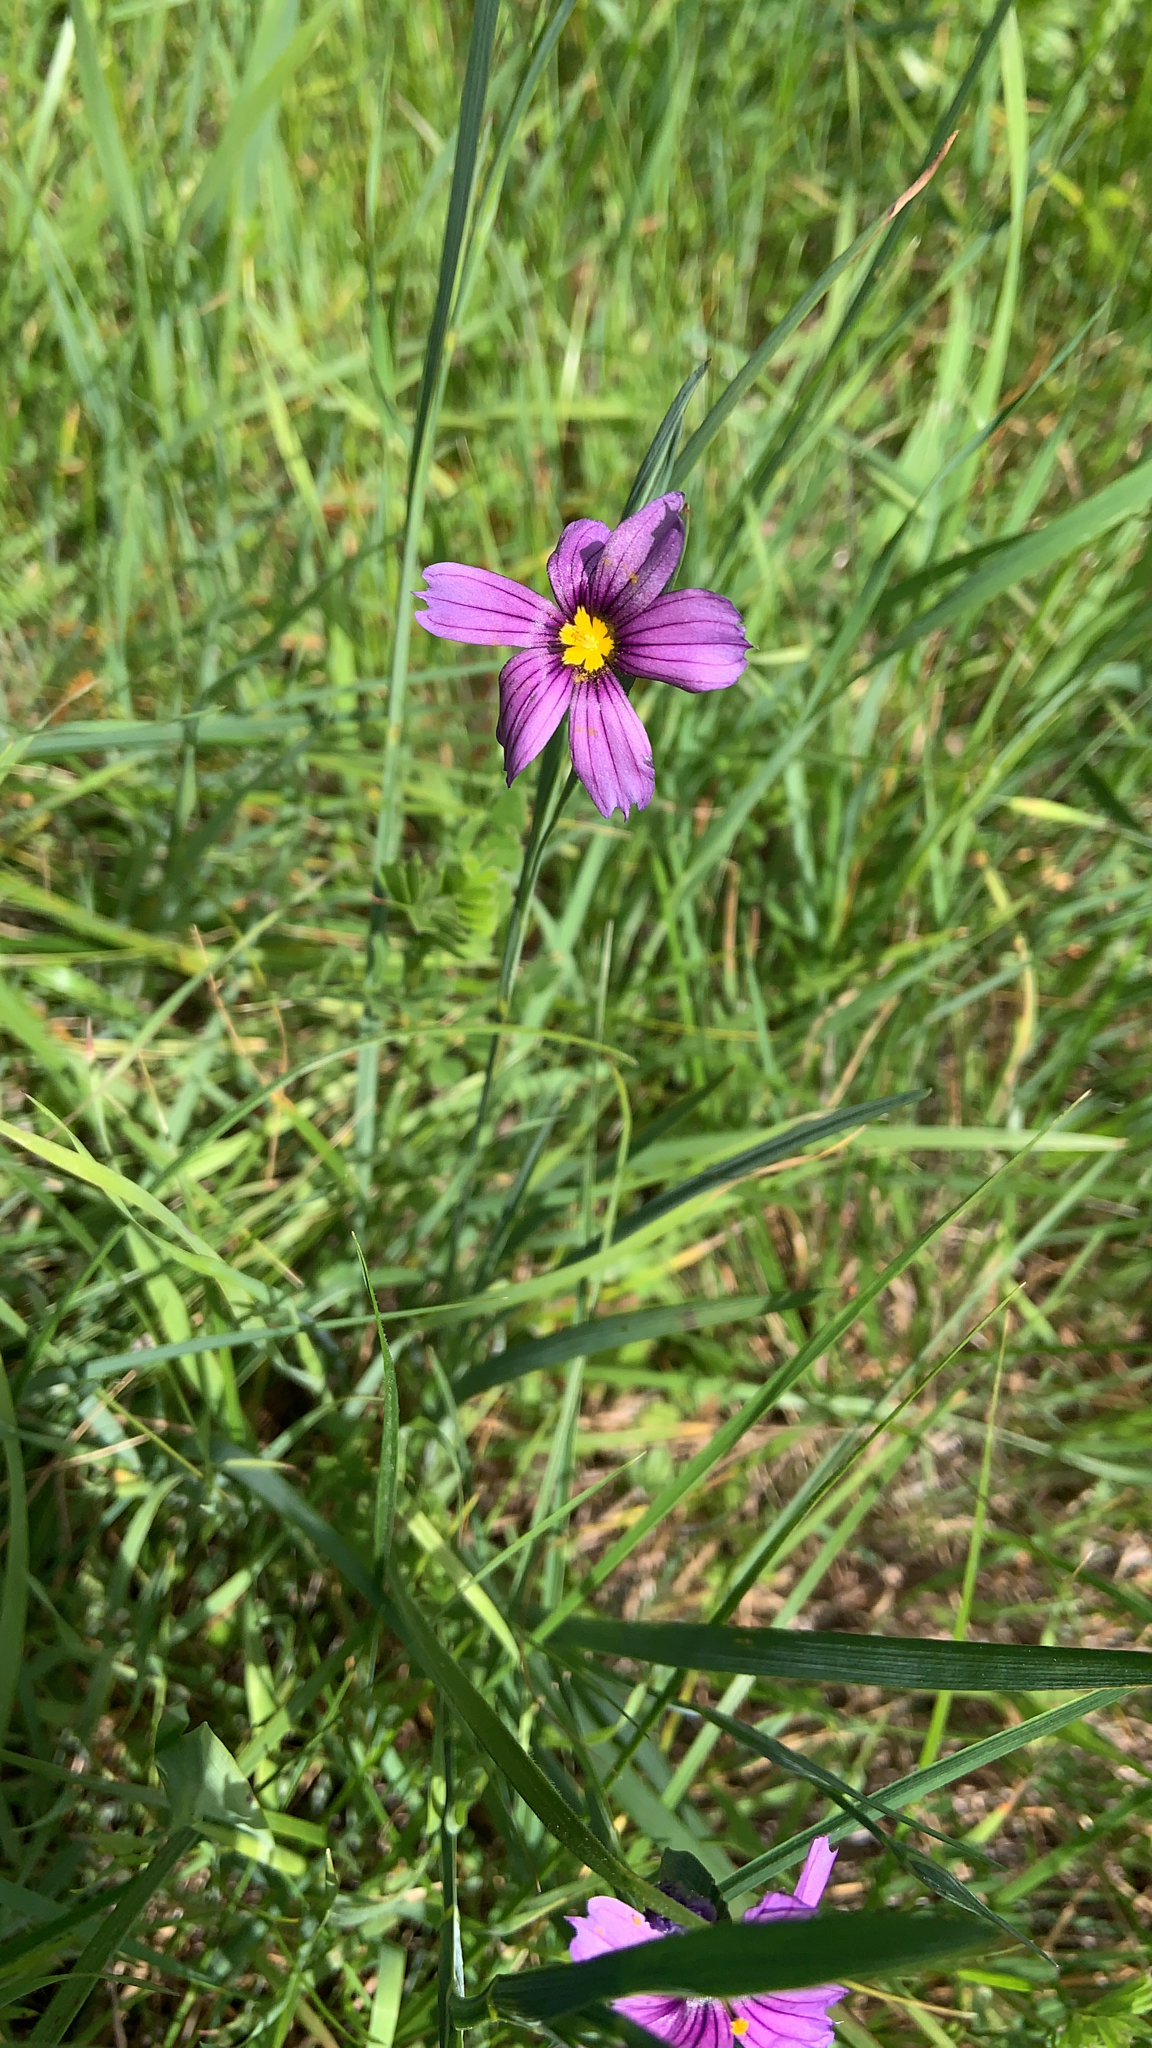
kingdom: Plantae
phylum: Tracheophyta
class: Liliopsida
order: Asparagales
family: Iridaceae
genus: Sisyrinchium
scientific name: Sisyrinchium bellum
